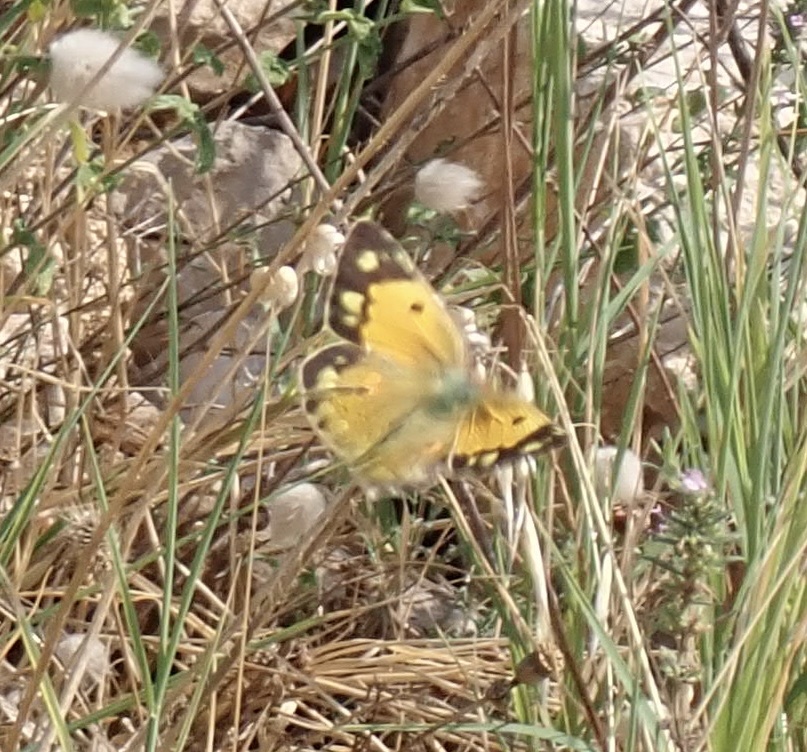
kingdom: Animalia
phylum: Arthropoda
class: Insecta
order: Lepidoptera
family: Pieridae
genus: Colias
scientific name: Colias croceus
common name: Clouded yellow
